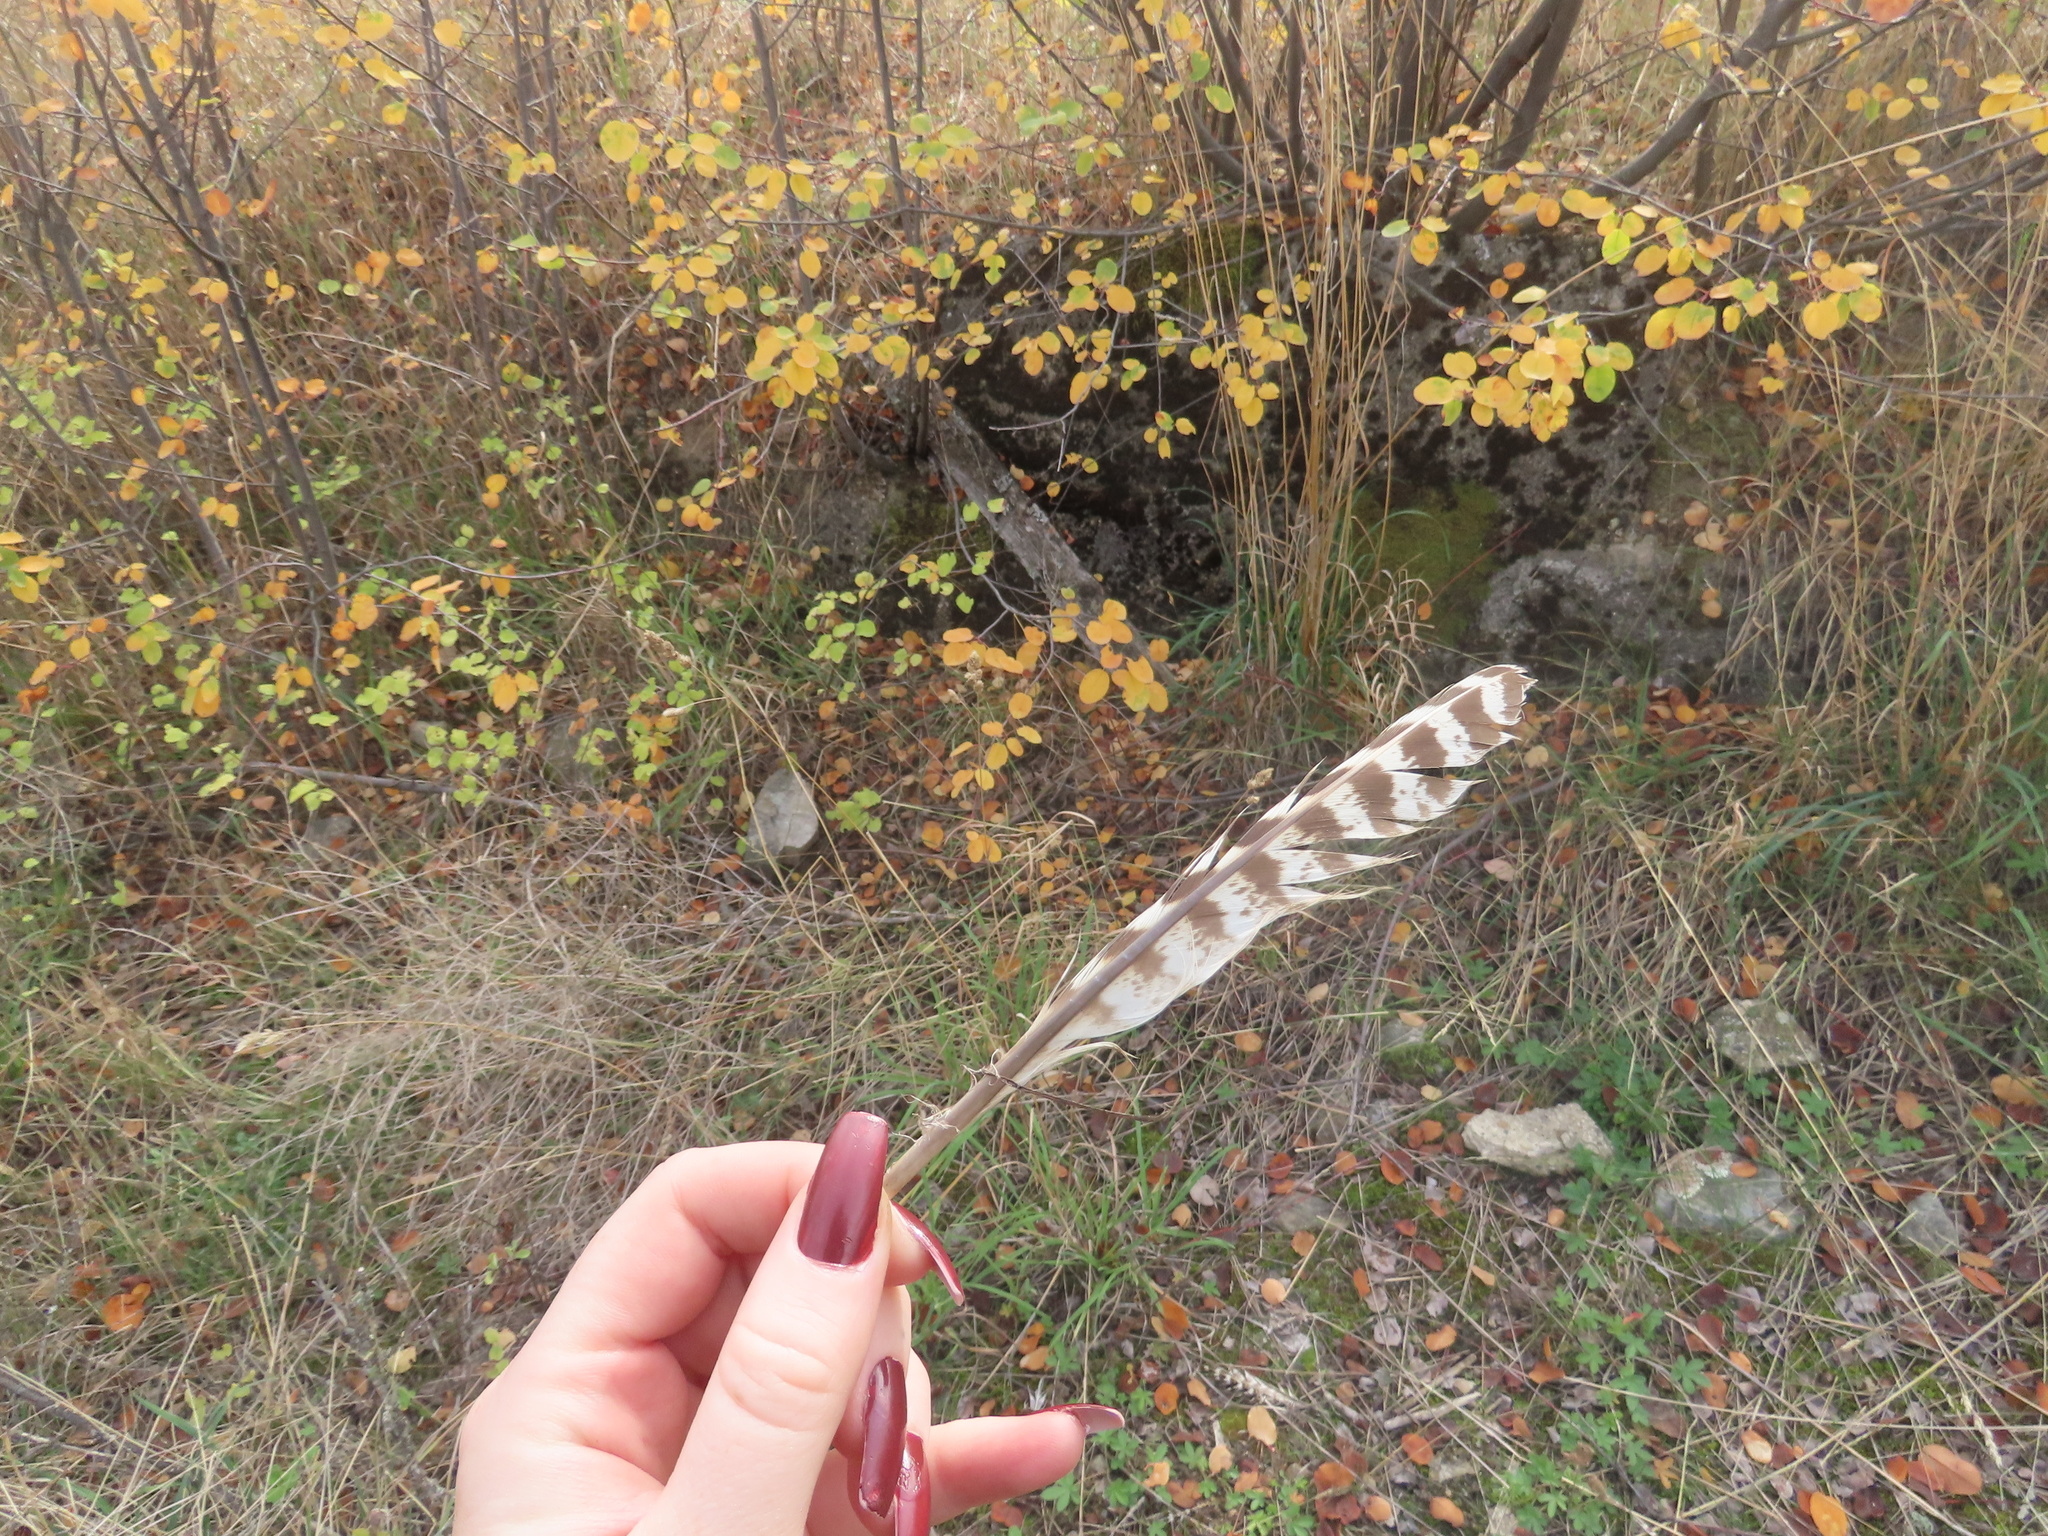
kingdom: Animalia
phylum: Chordata
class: Aves
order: Galliformes
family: Phasianidae
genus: Phasianus
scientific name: Phasianus colchicus
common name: Common pheasant
